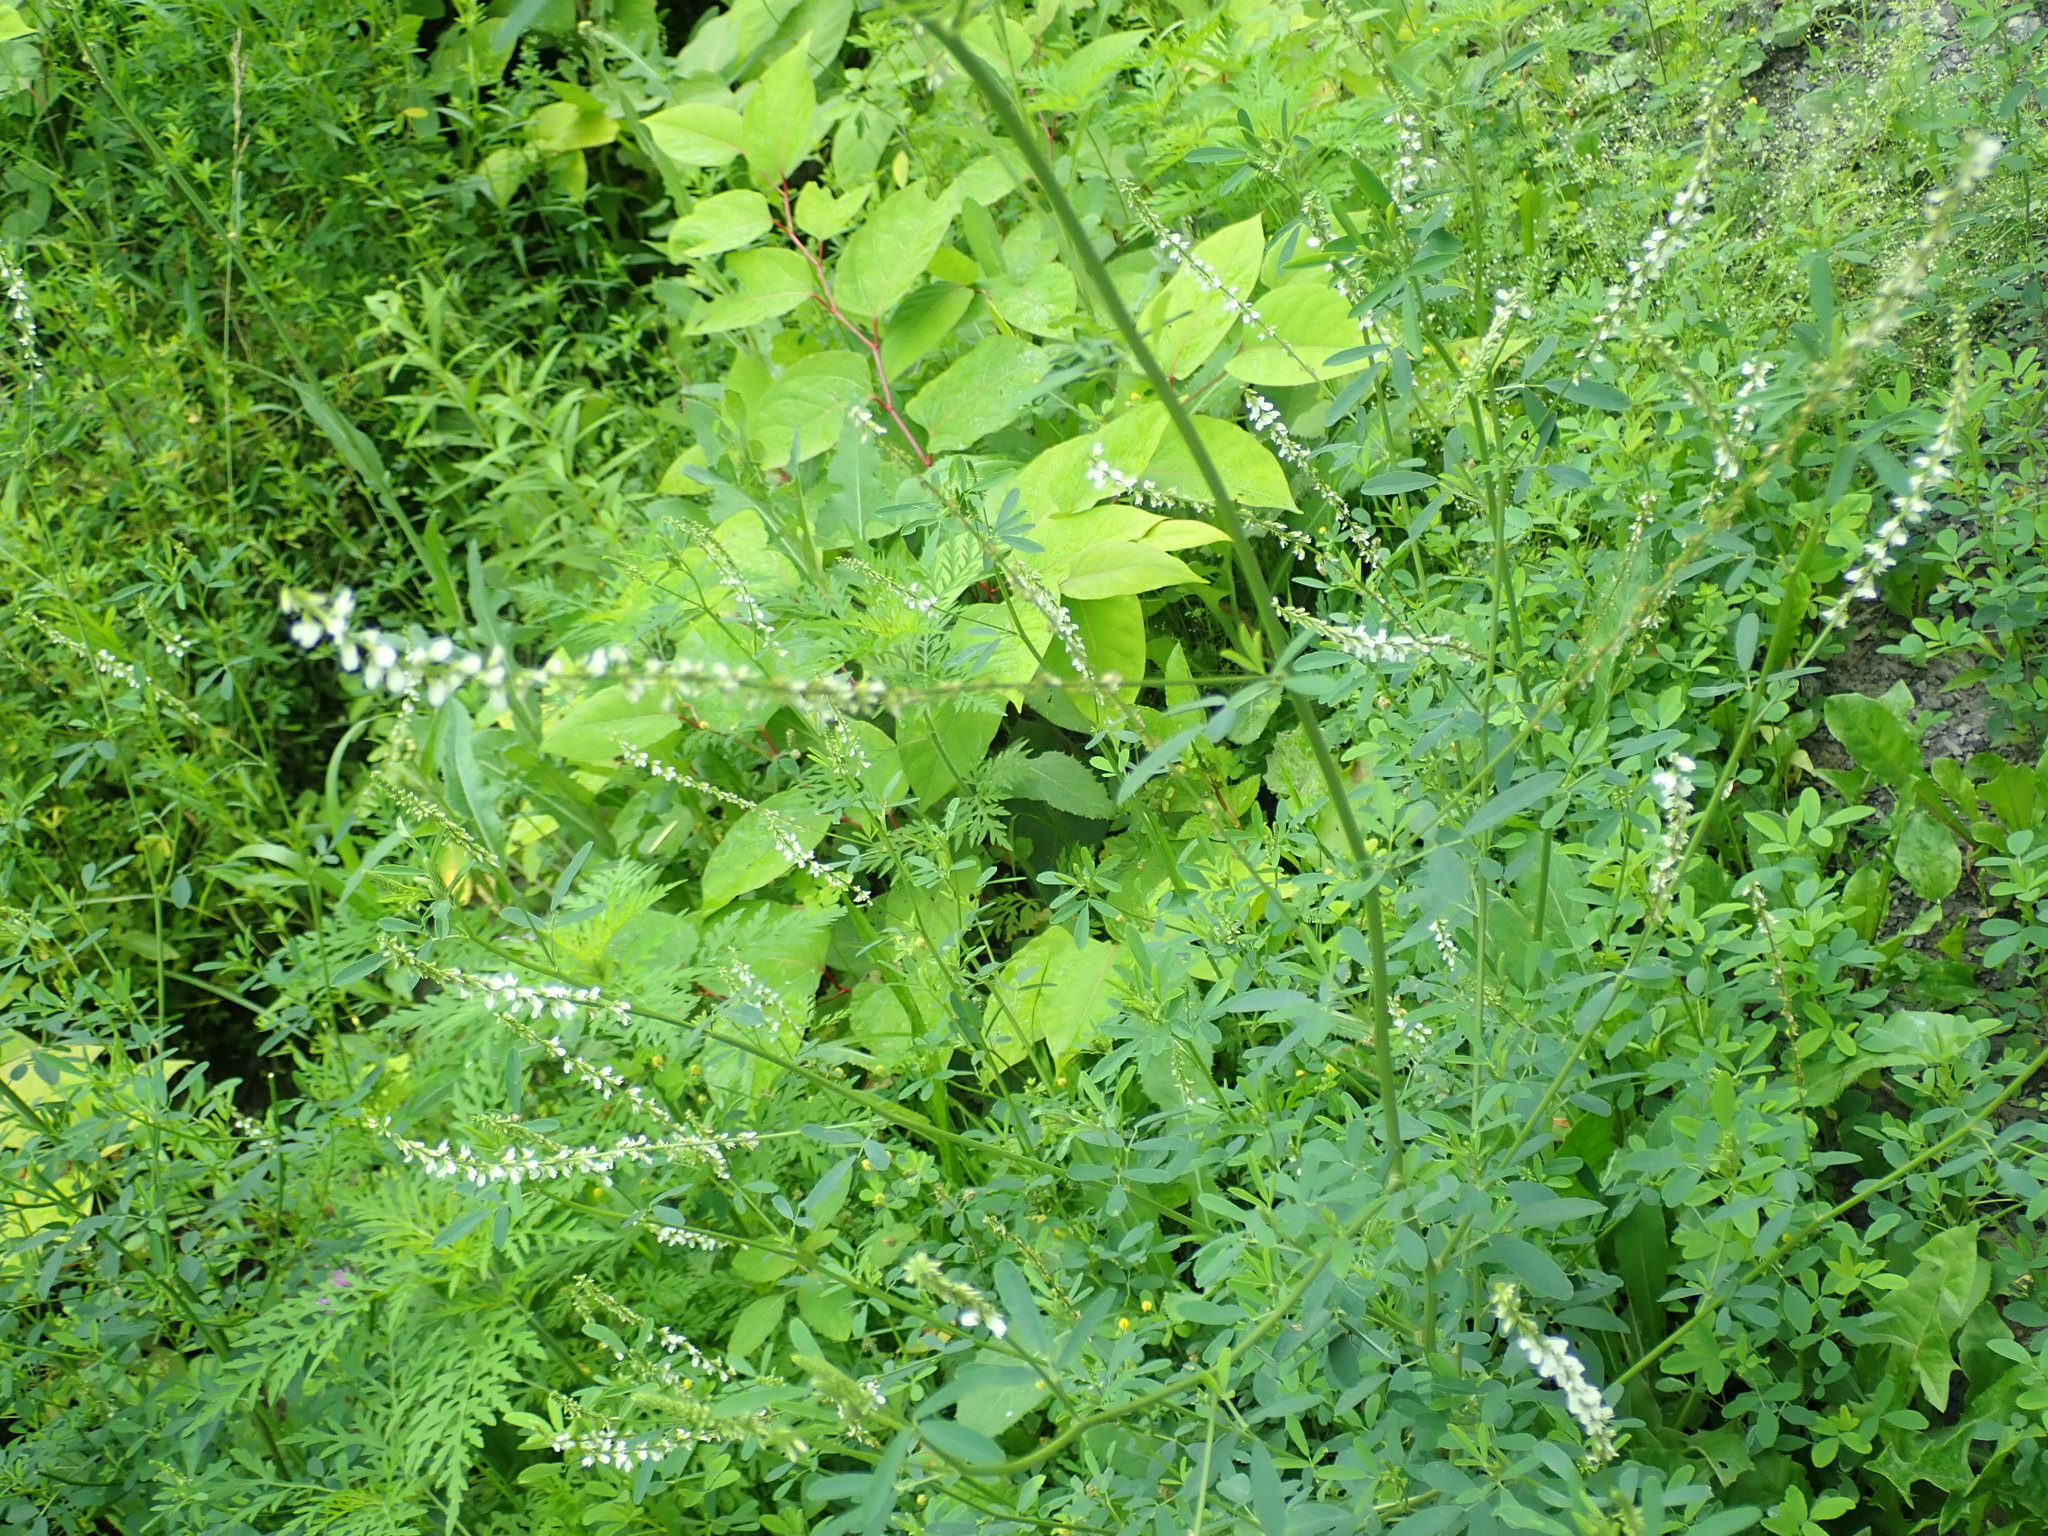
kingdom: Plantae
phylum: Tracheophyta
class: Magnoliopsida
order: Fabales
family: Fabaceae
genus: Melilotus
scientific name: Melilotus albus
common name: White melilot
